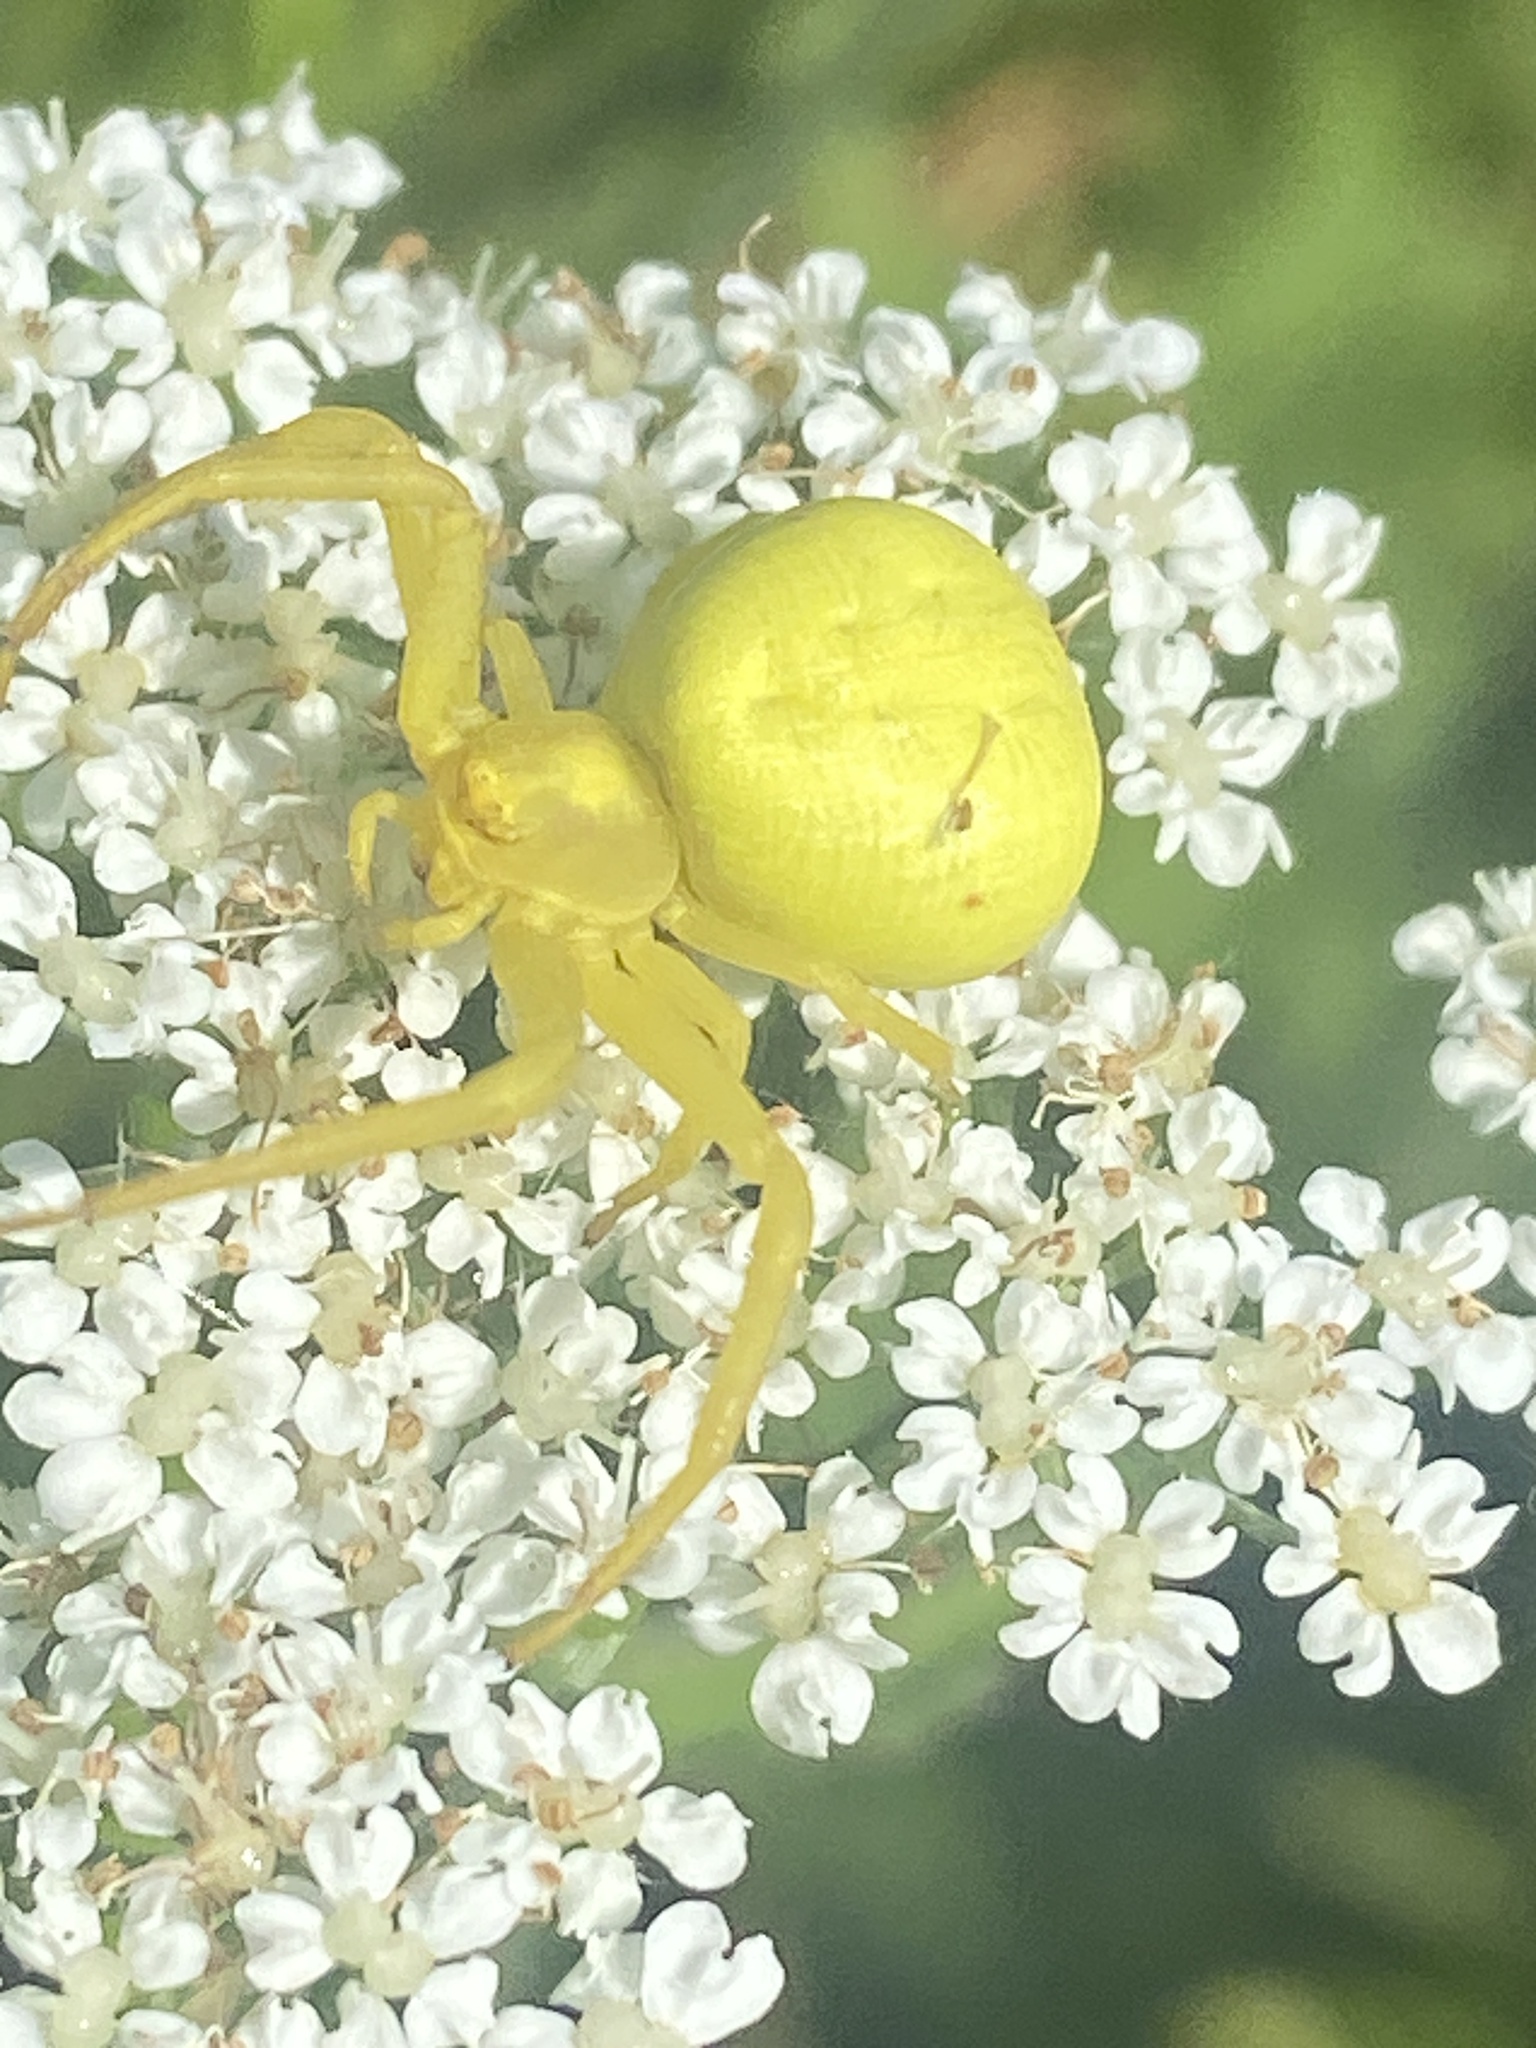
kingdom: Animalia
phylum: Arthropoda
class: Arachnida
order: Araneae
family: Thomisidae
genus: Misumena
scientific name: Misumena vatia
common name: Goldenrod crab spider
